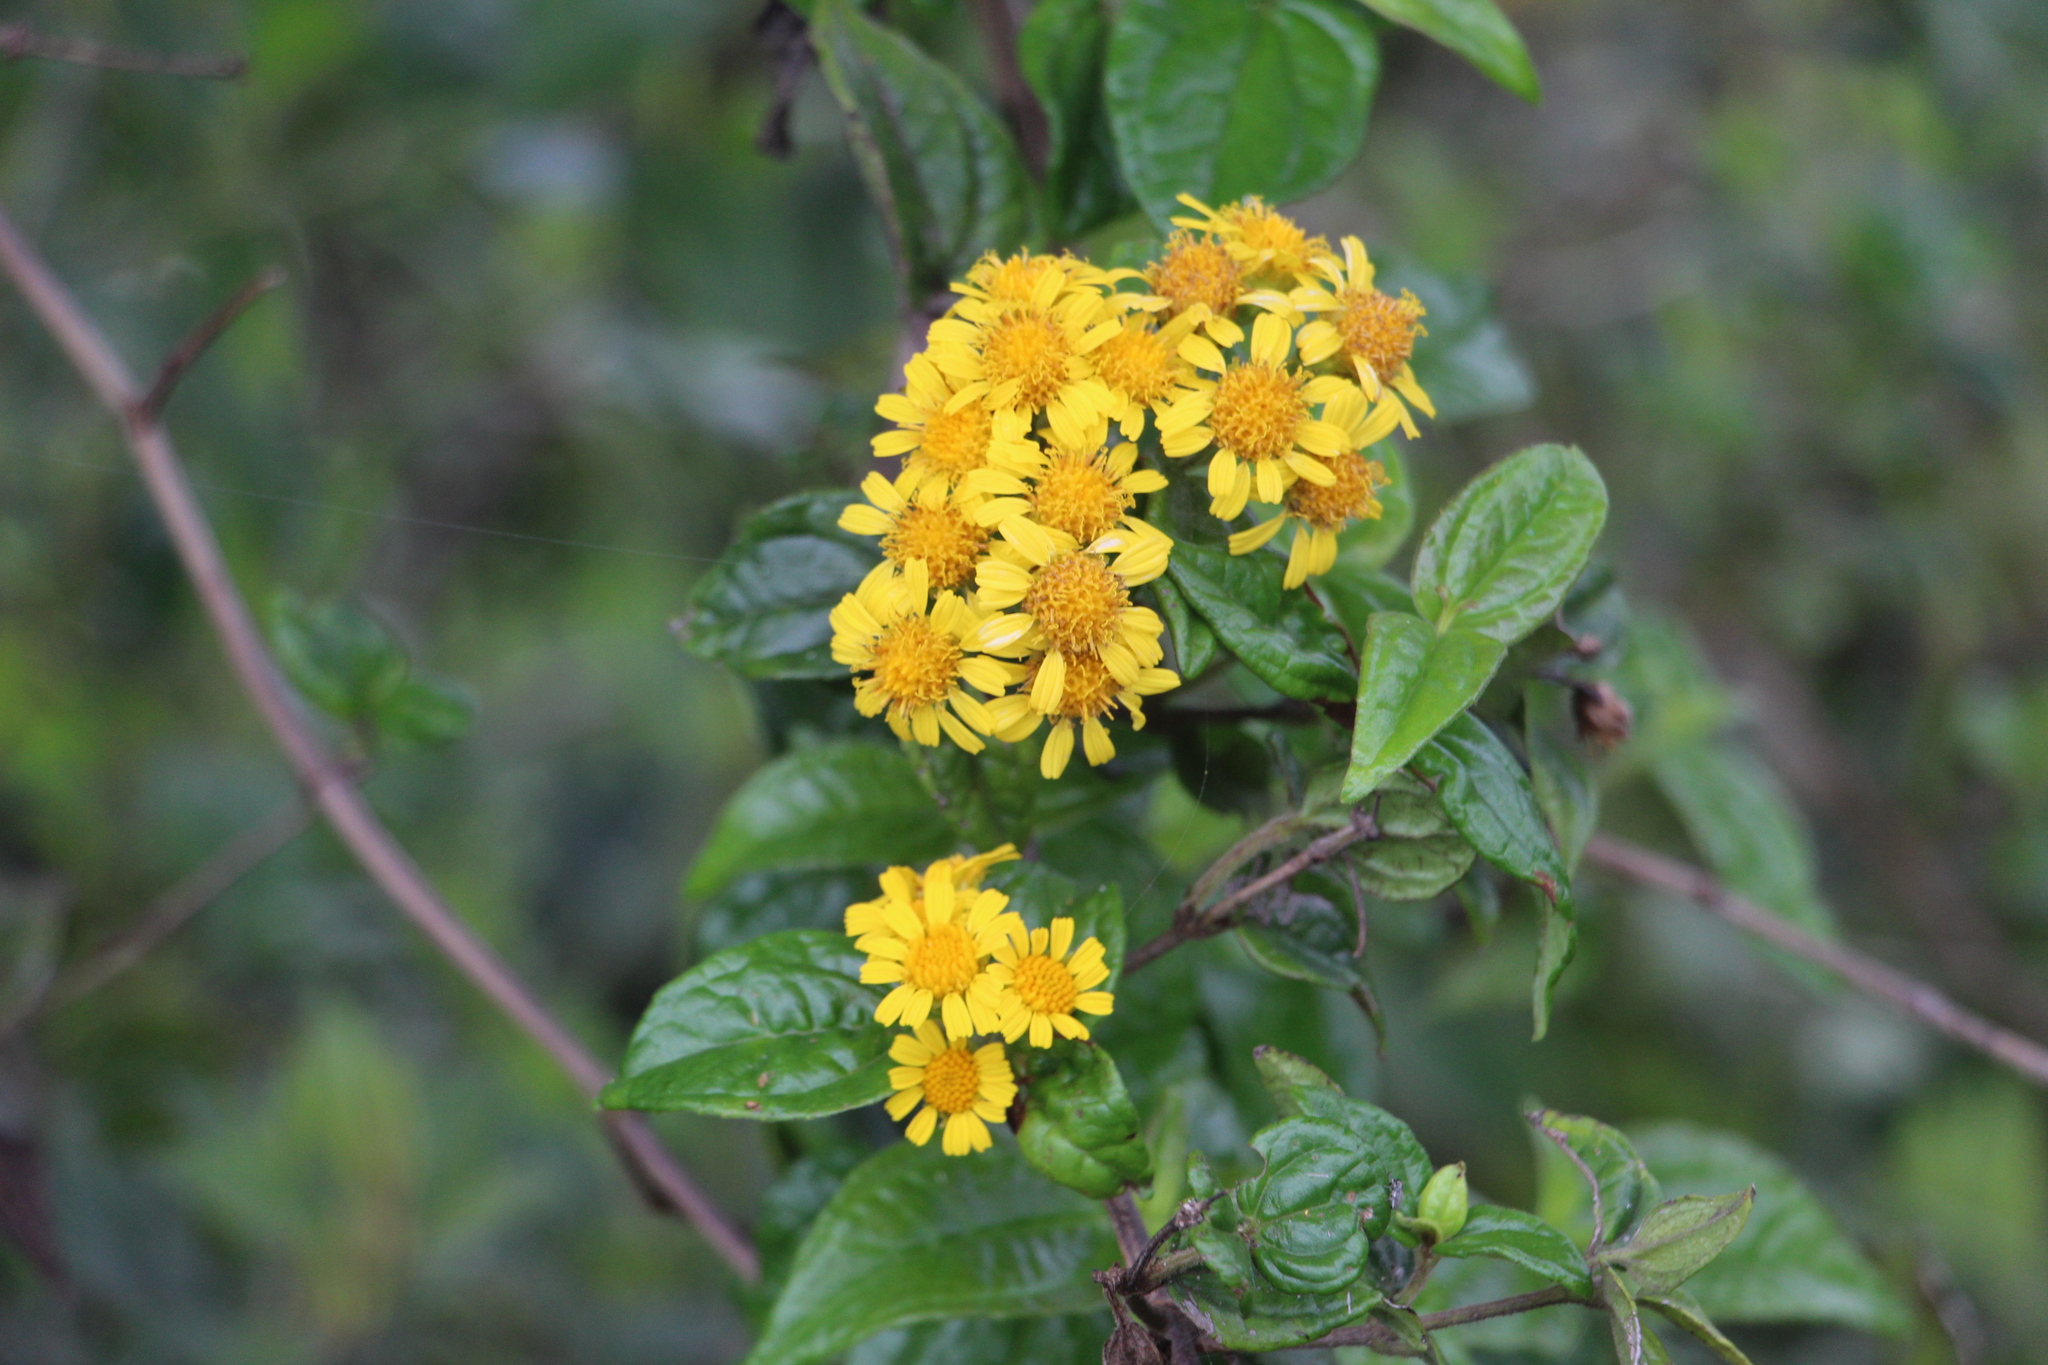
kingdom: Plantae
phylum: Tracheophyta
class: Magnoliopsida
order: Asterales
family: Asteraceae
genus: Calea
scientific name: Calea bucaramangensis
